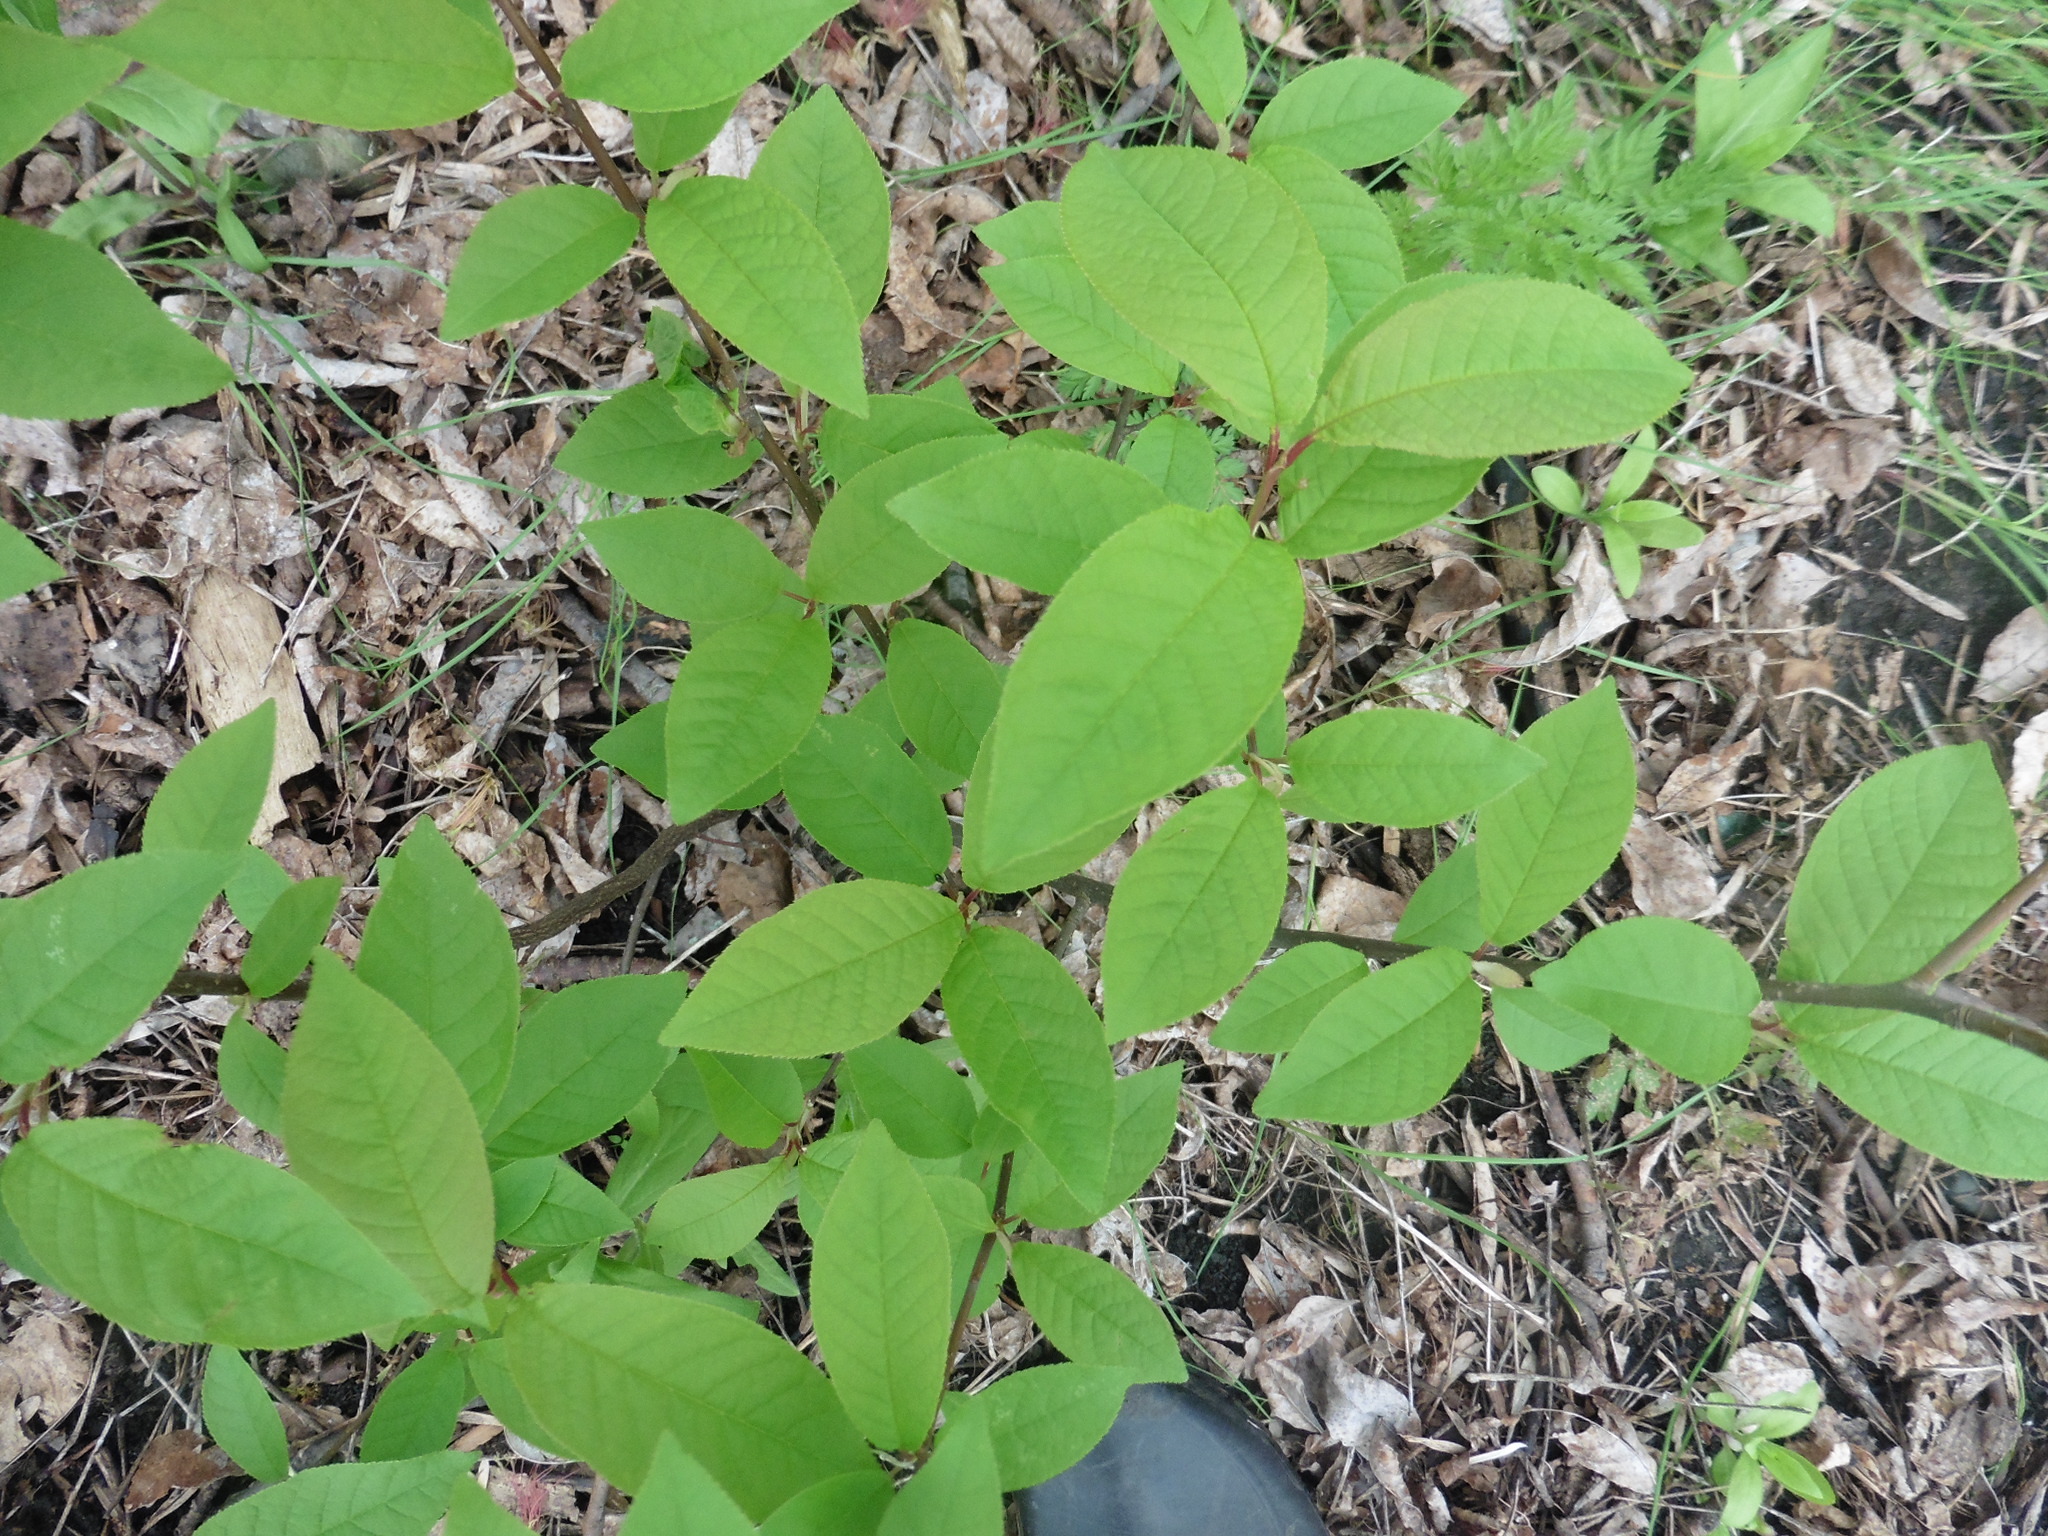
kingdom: Plantae
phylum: Tracheophyta
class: Magnoliopsida
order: Rosales
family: Rosaceae
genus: Prunus
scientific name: Prunus padus
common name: Bird cherry
